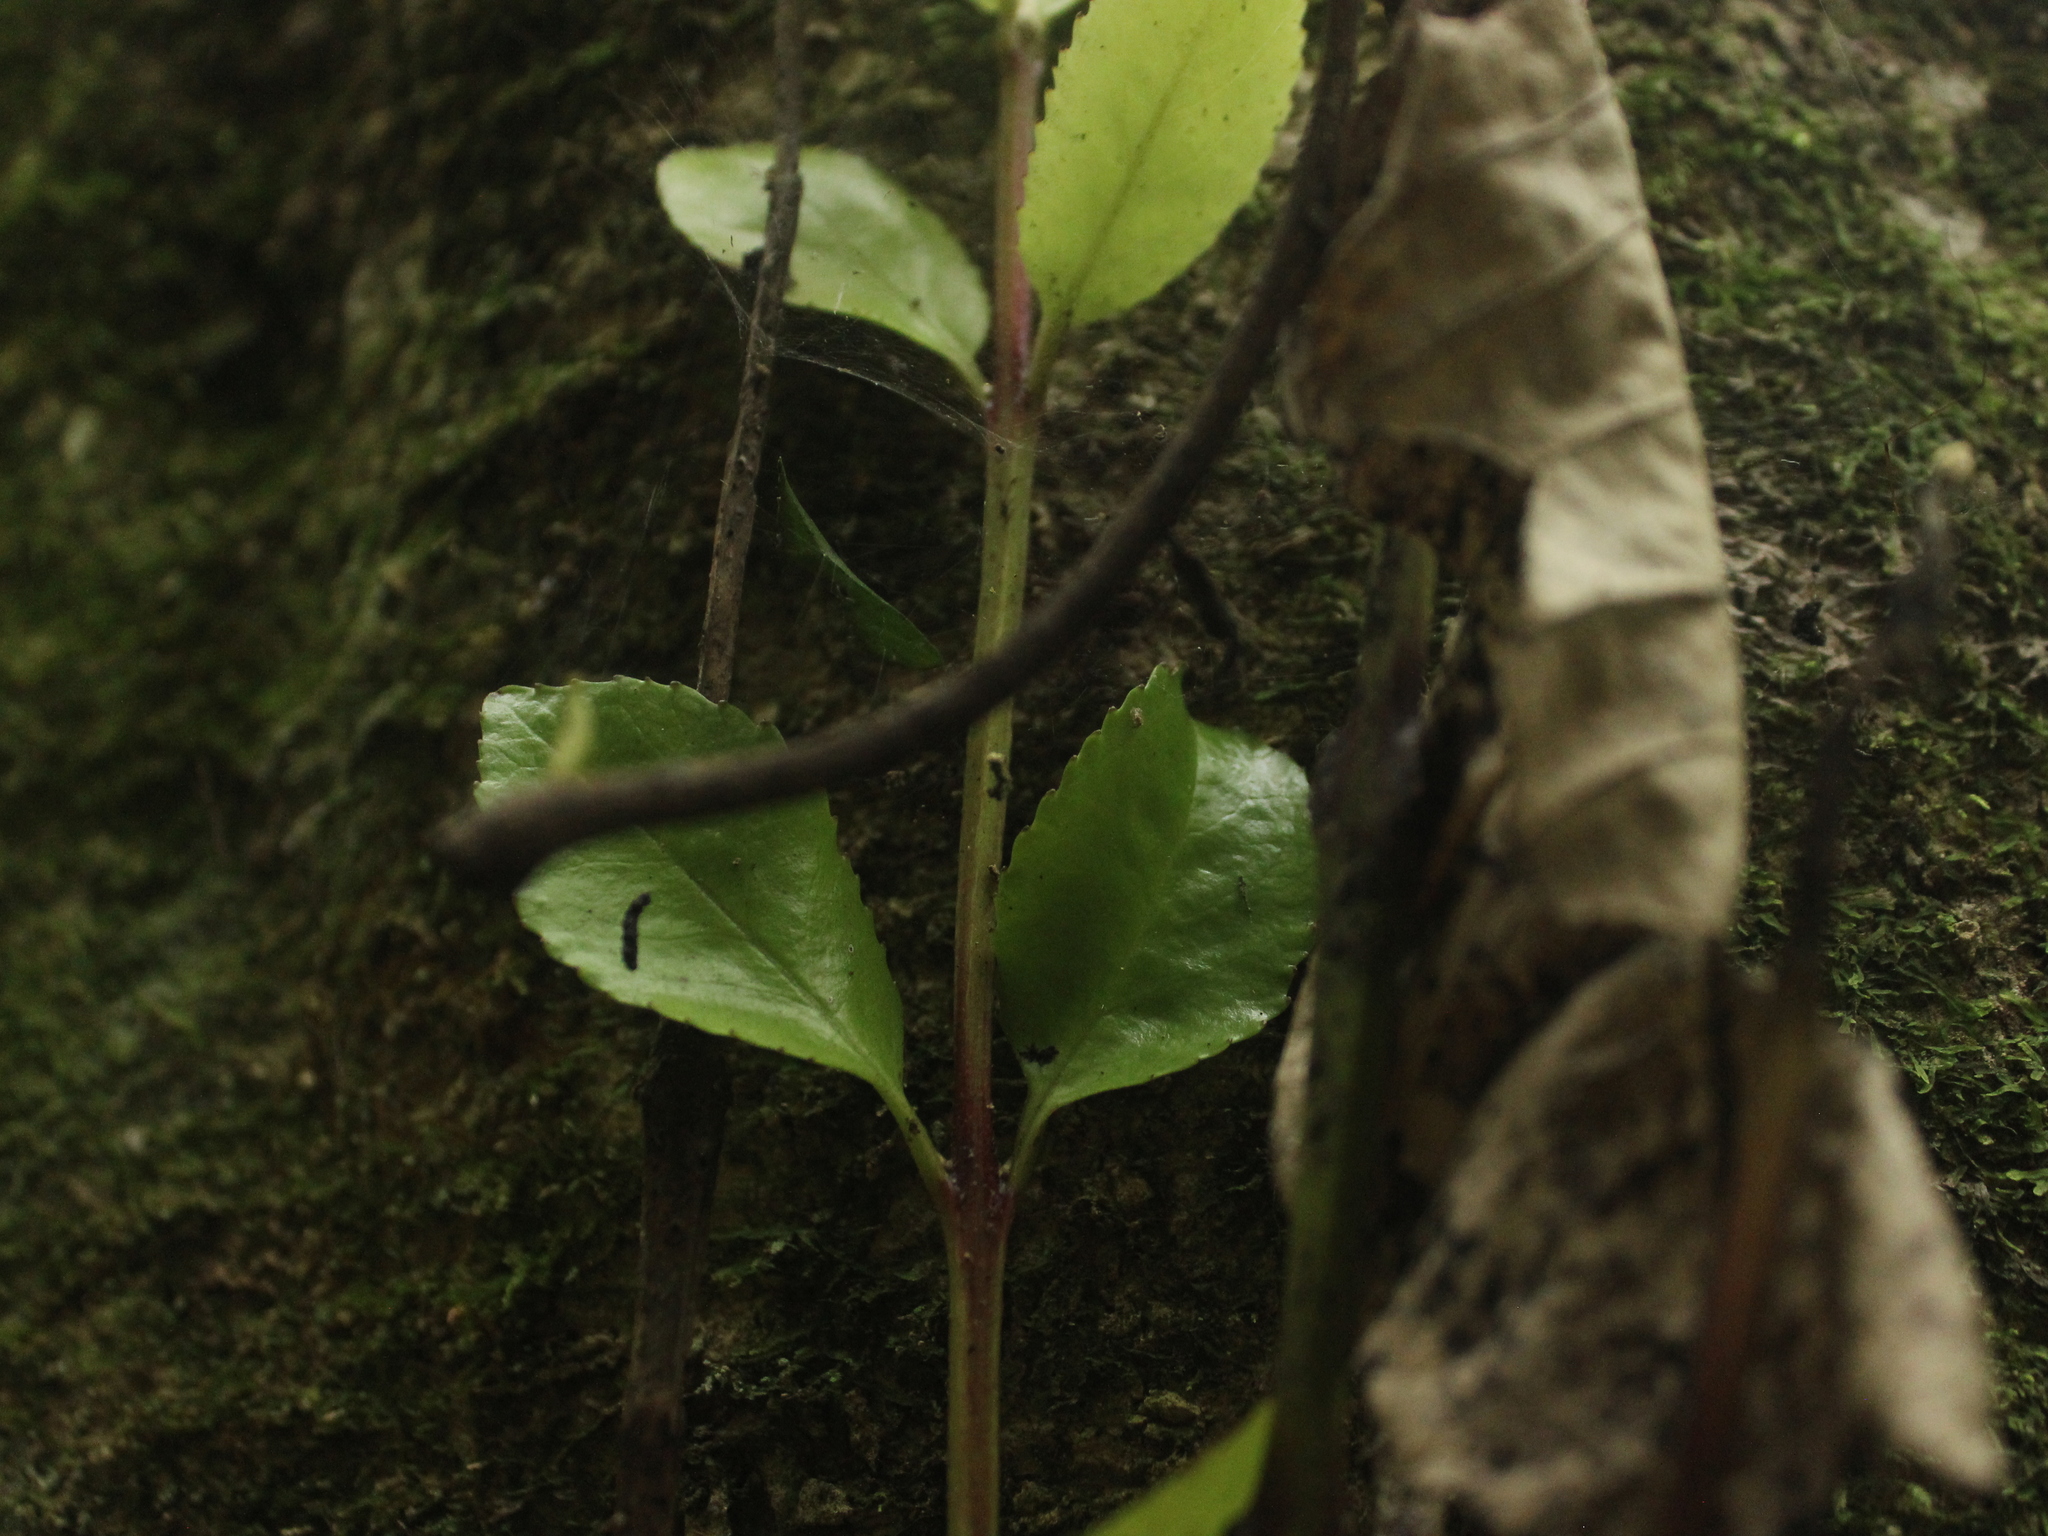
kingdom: Plantae
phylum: Tracheophyta
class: Magnoliopsida
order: Laurales
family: Atherospermataceae
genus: Laurelia
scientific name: Laurelia novae-zelandiae
